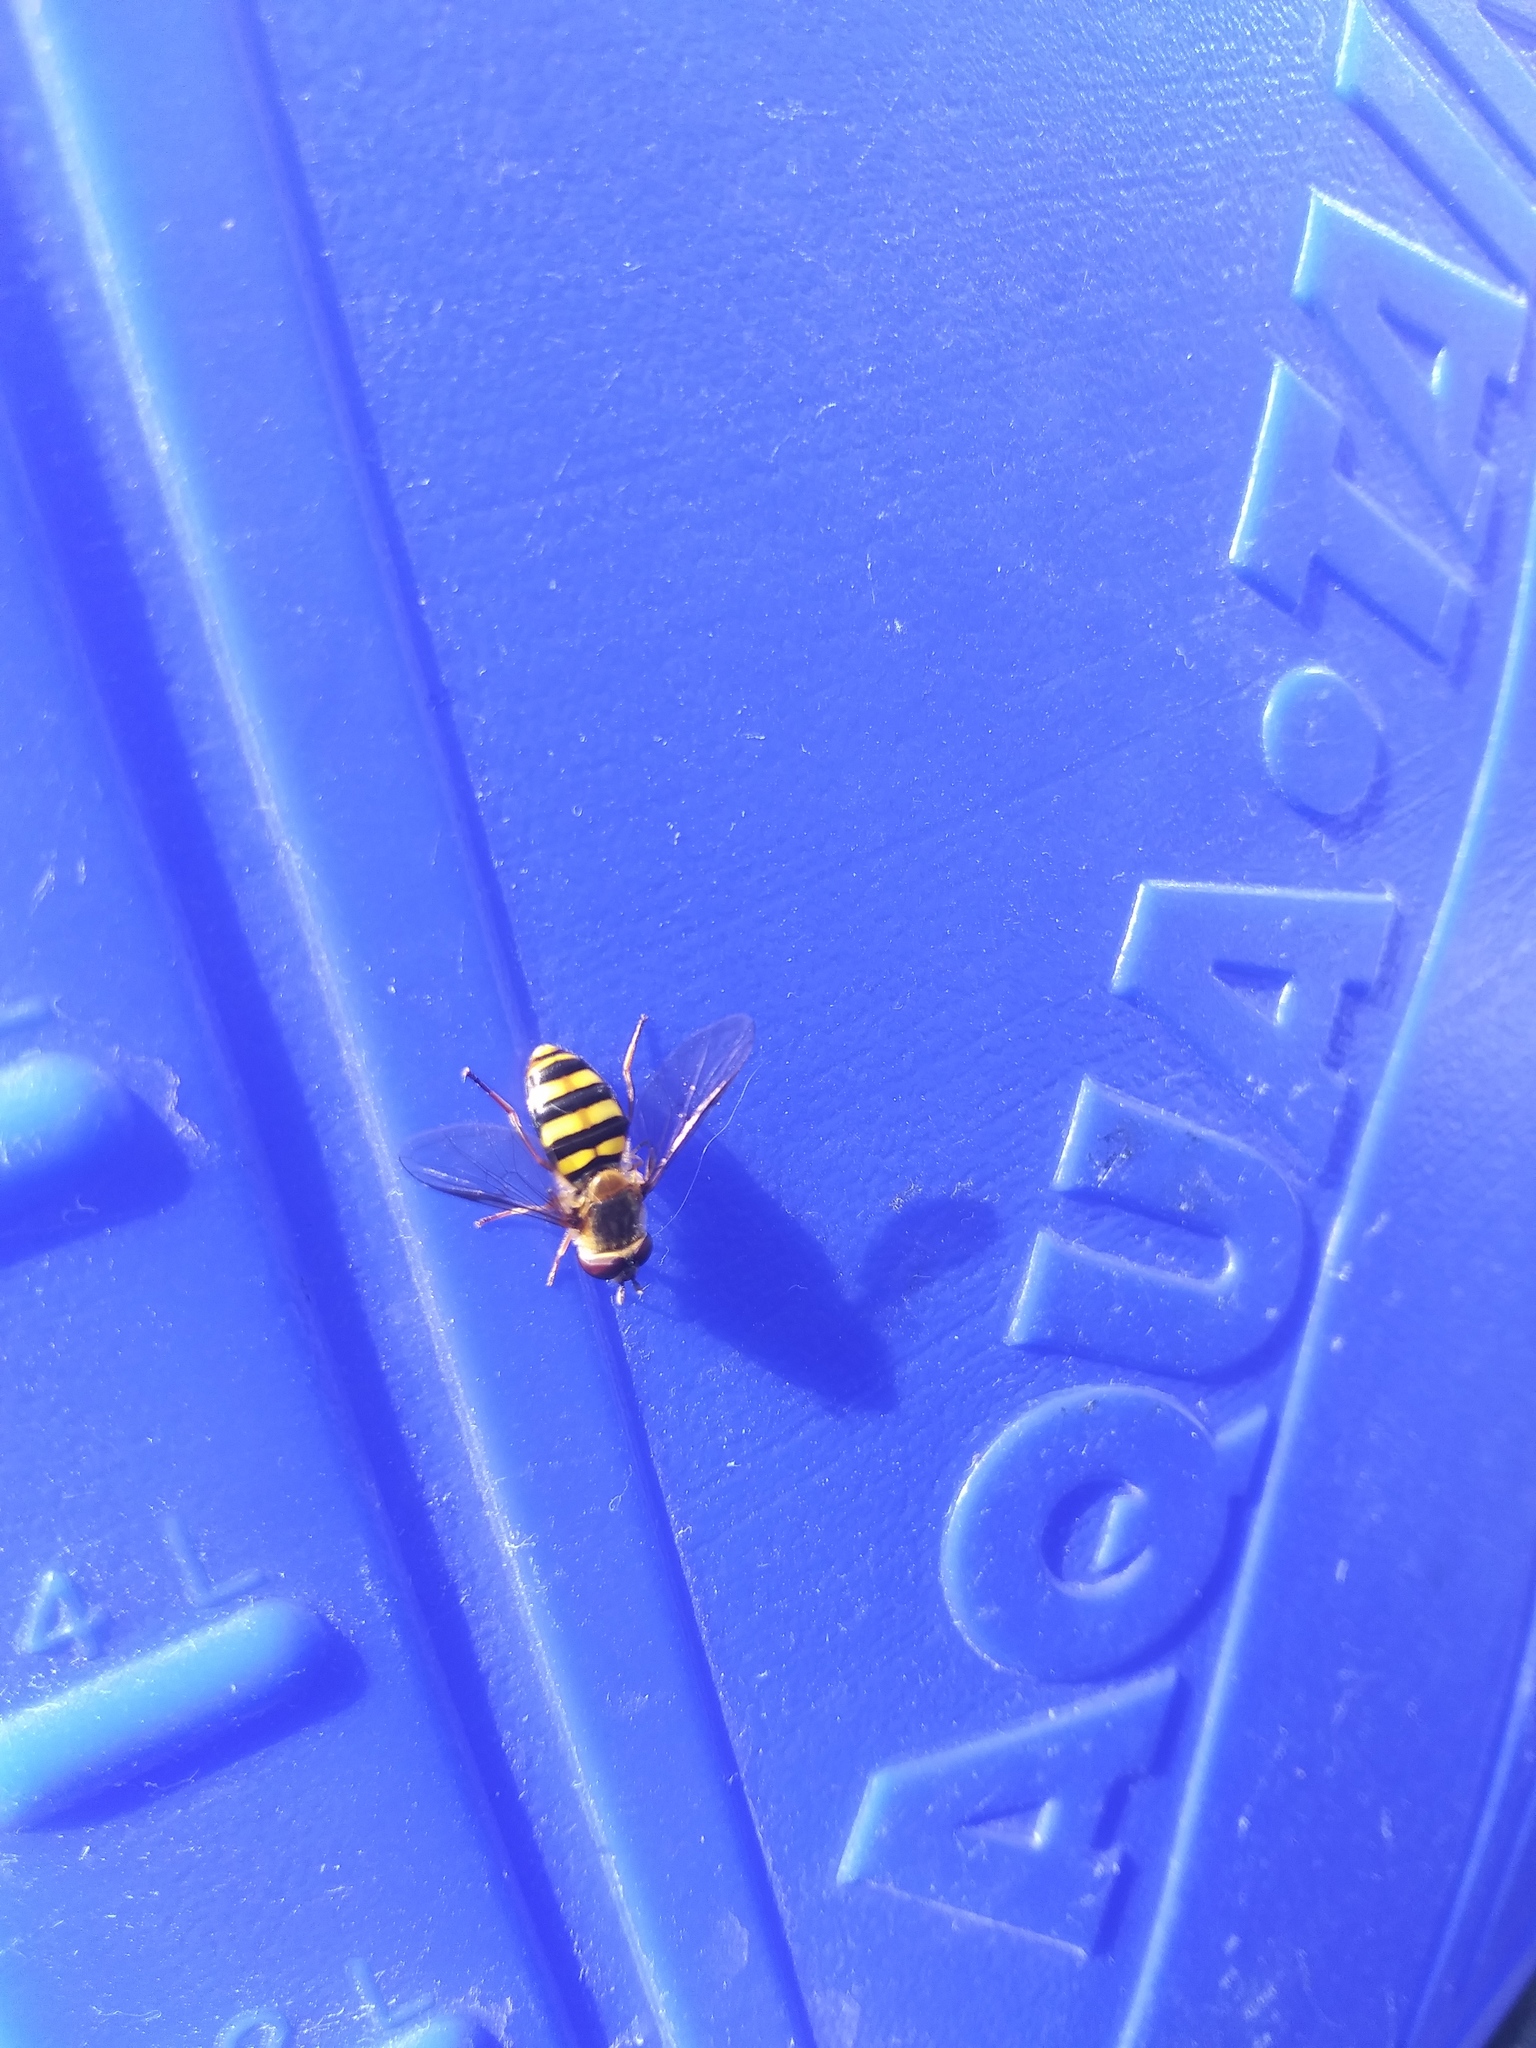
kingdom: Animalia
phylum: Arthropoda
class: Insecta
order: Diptera
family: Syrphidae
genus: Eupeodes
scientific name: Eupeodes
